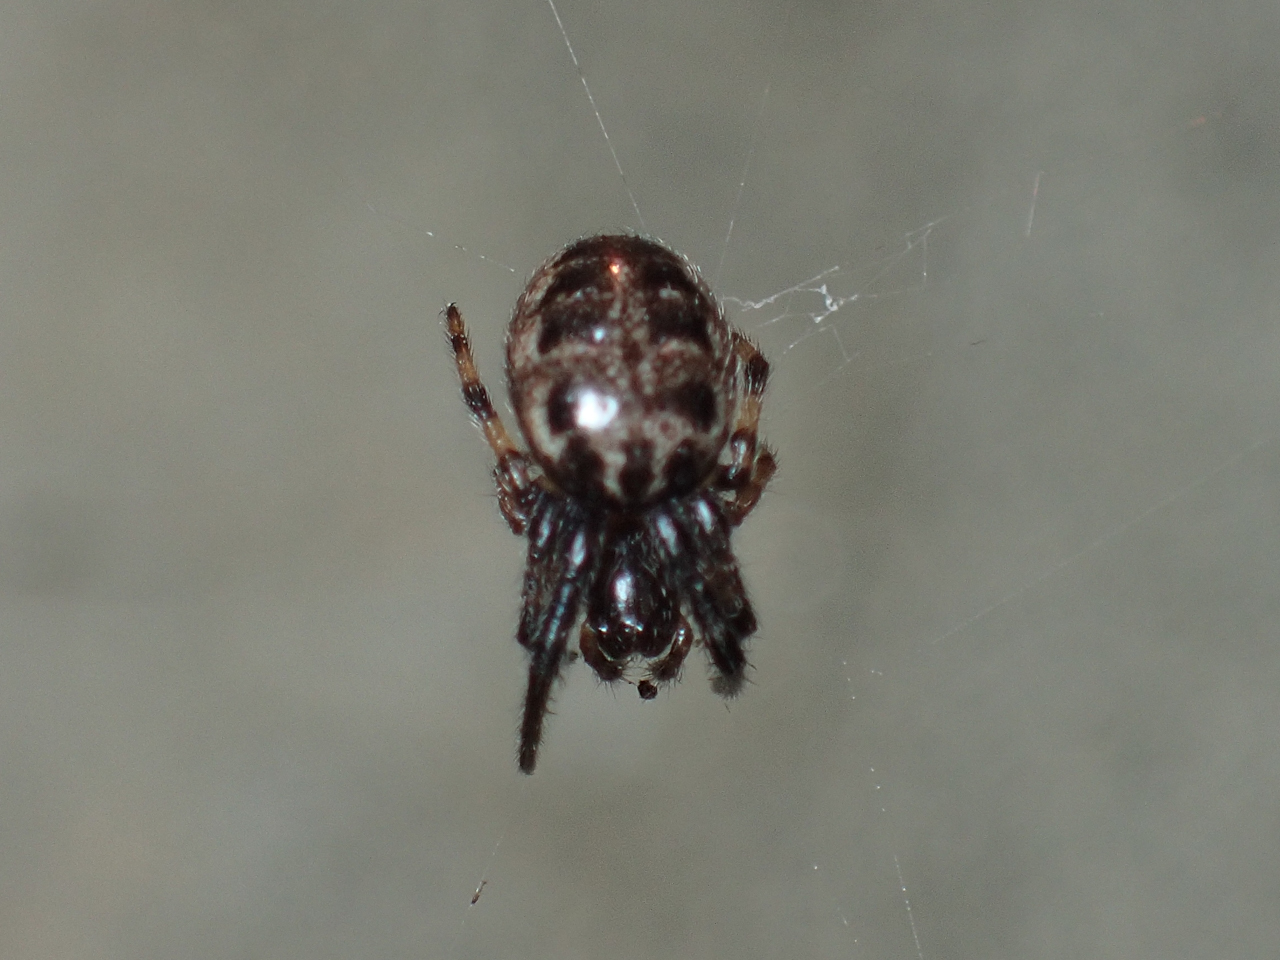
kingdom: Animalia
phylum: Arthropoda
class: Arachnida
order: Araneae
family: Araneidae
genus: Larinioides
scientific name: Larinioides cornutus
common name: Furrow orbweaver
